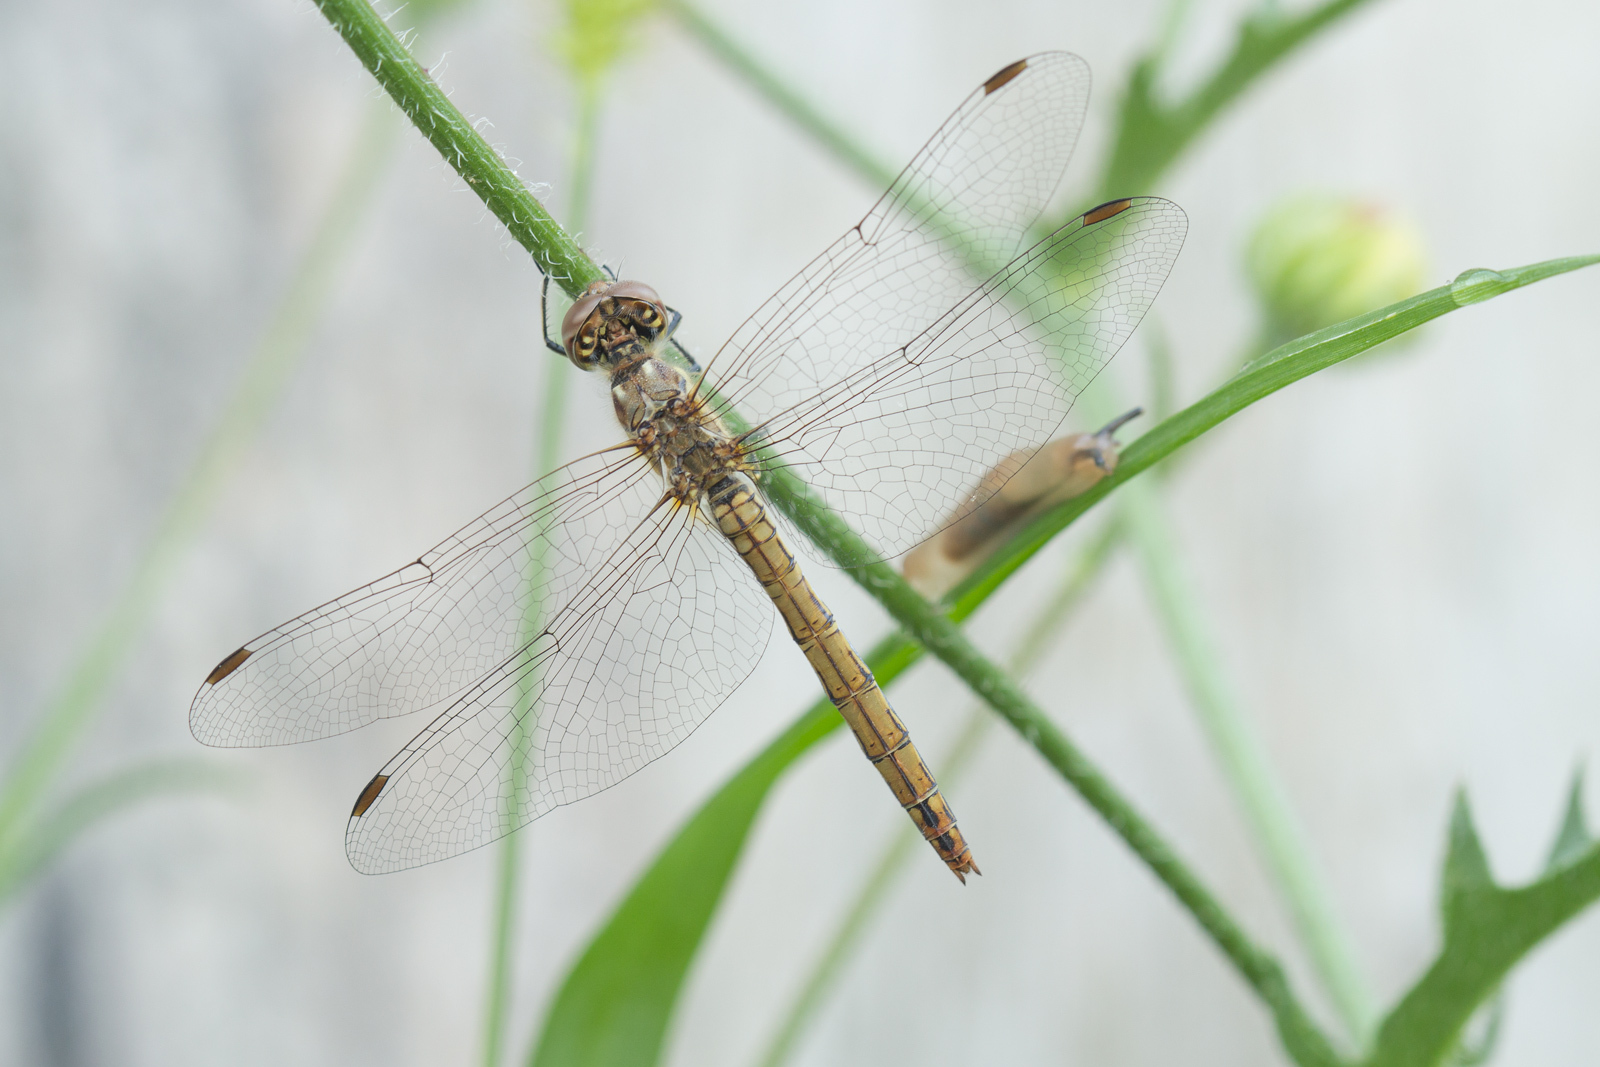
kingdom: Animalia
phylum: Arthropoda
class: Insecta
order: Odonata
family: Libellulidae
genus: Sympetrum
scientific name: Sympetrum vulgatum
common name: Vagrant darter
